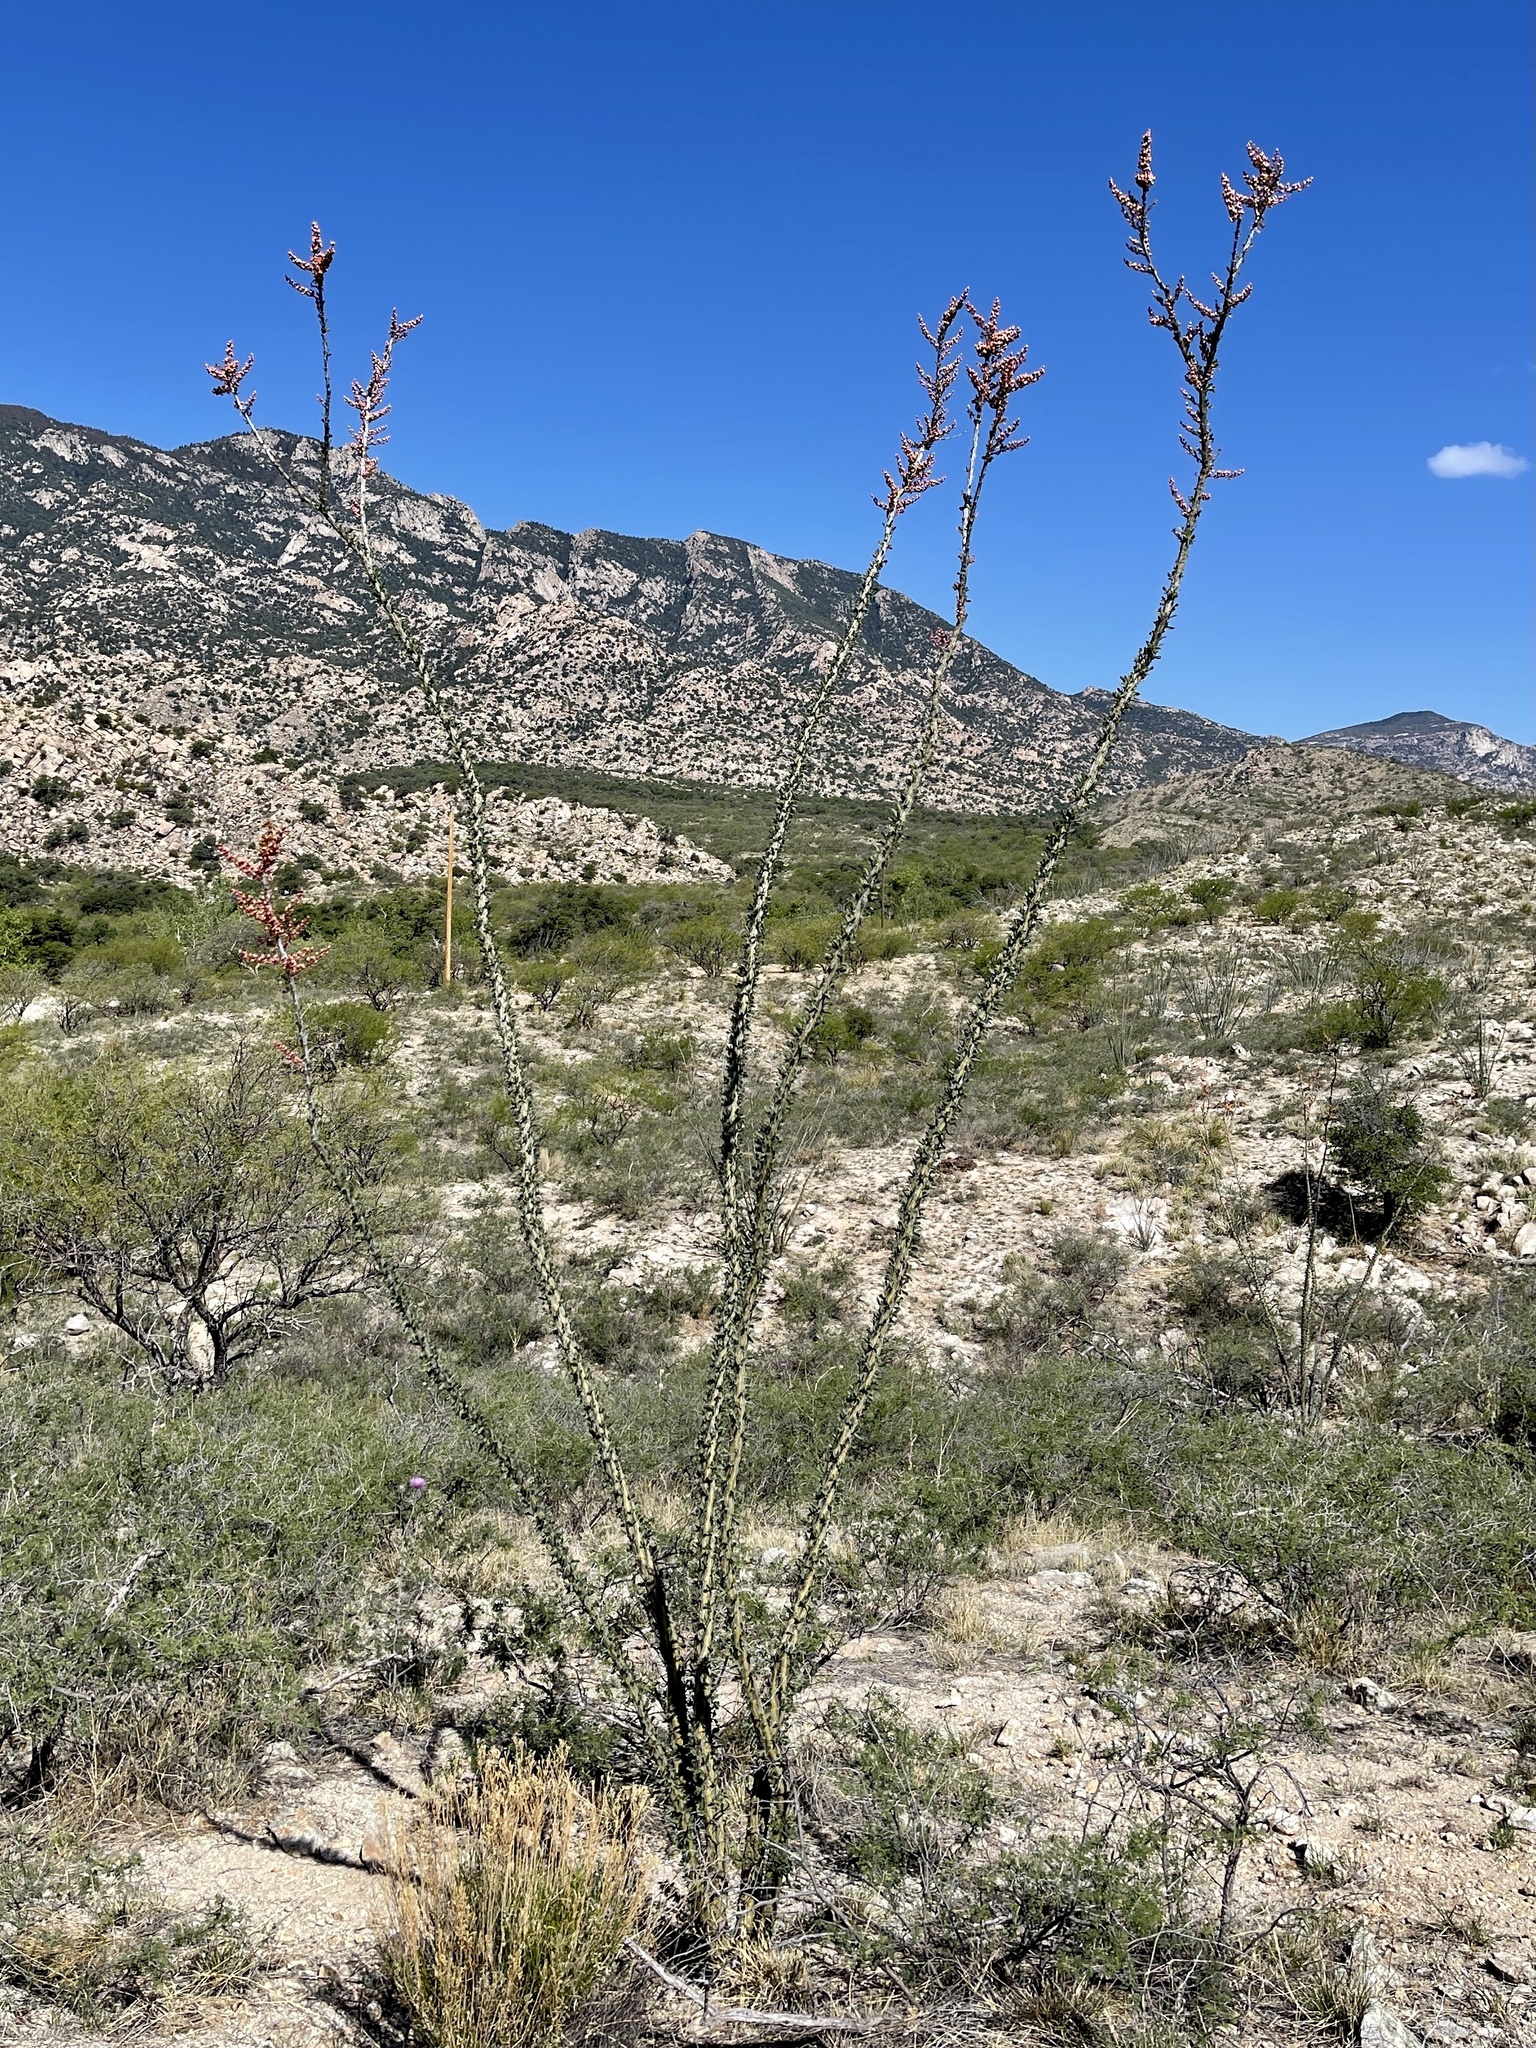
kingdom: Plantae
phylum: Tracheophyta
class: Magnoliopsida
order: Ericales
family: Fouquieriaceae
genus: Fouquieria
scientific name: Fouquieria splendens
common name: Vine-cactus
